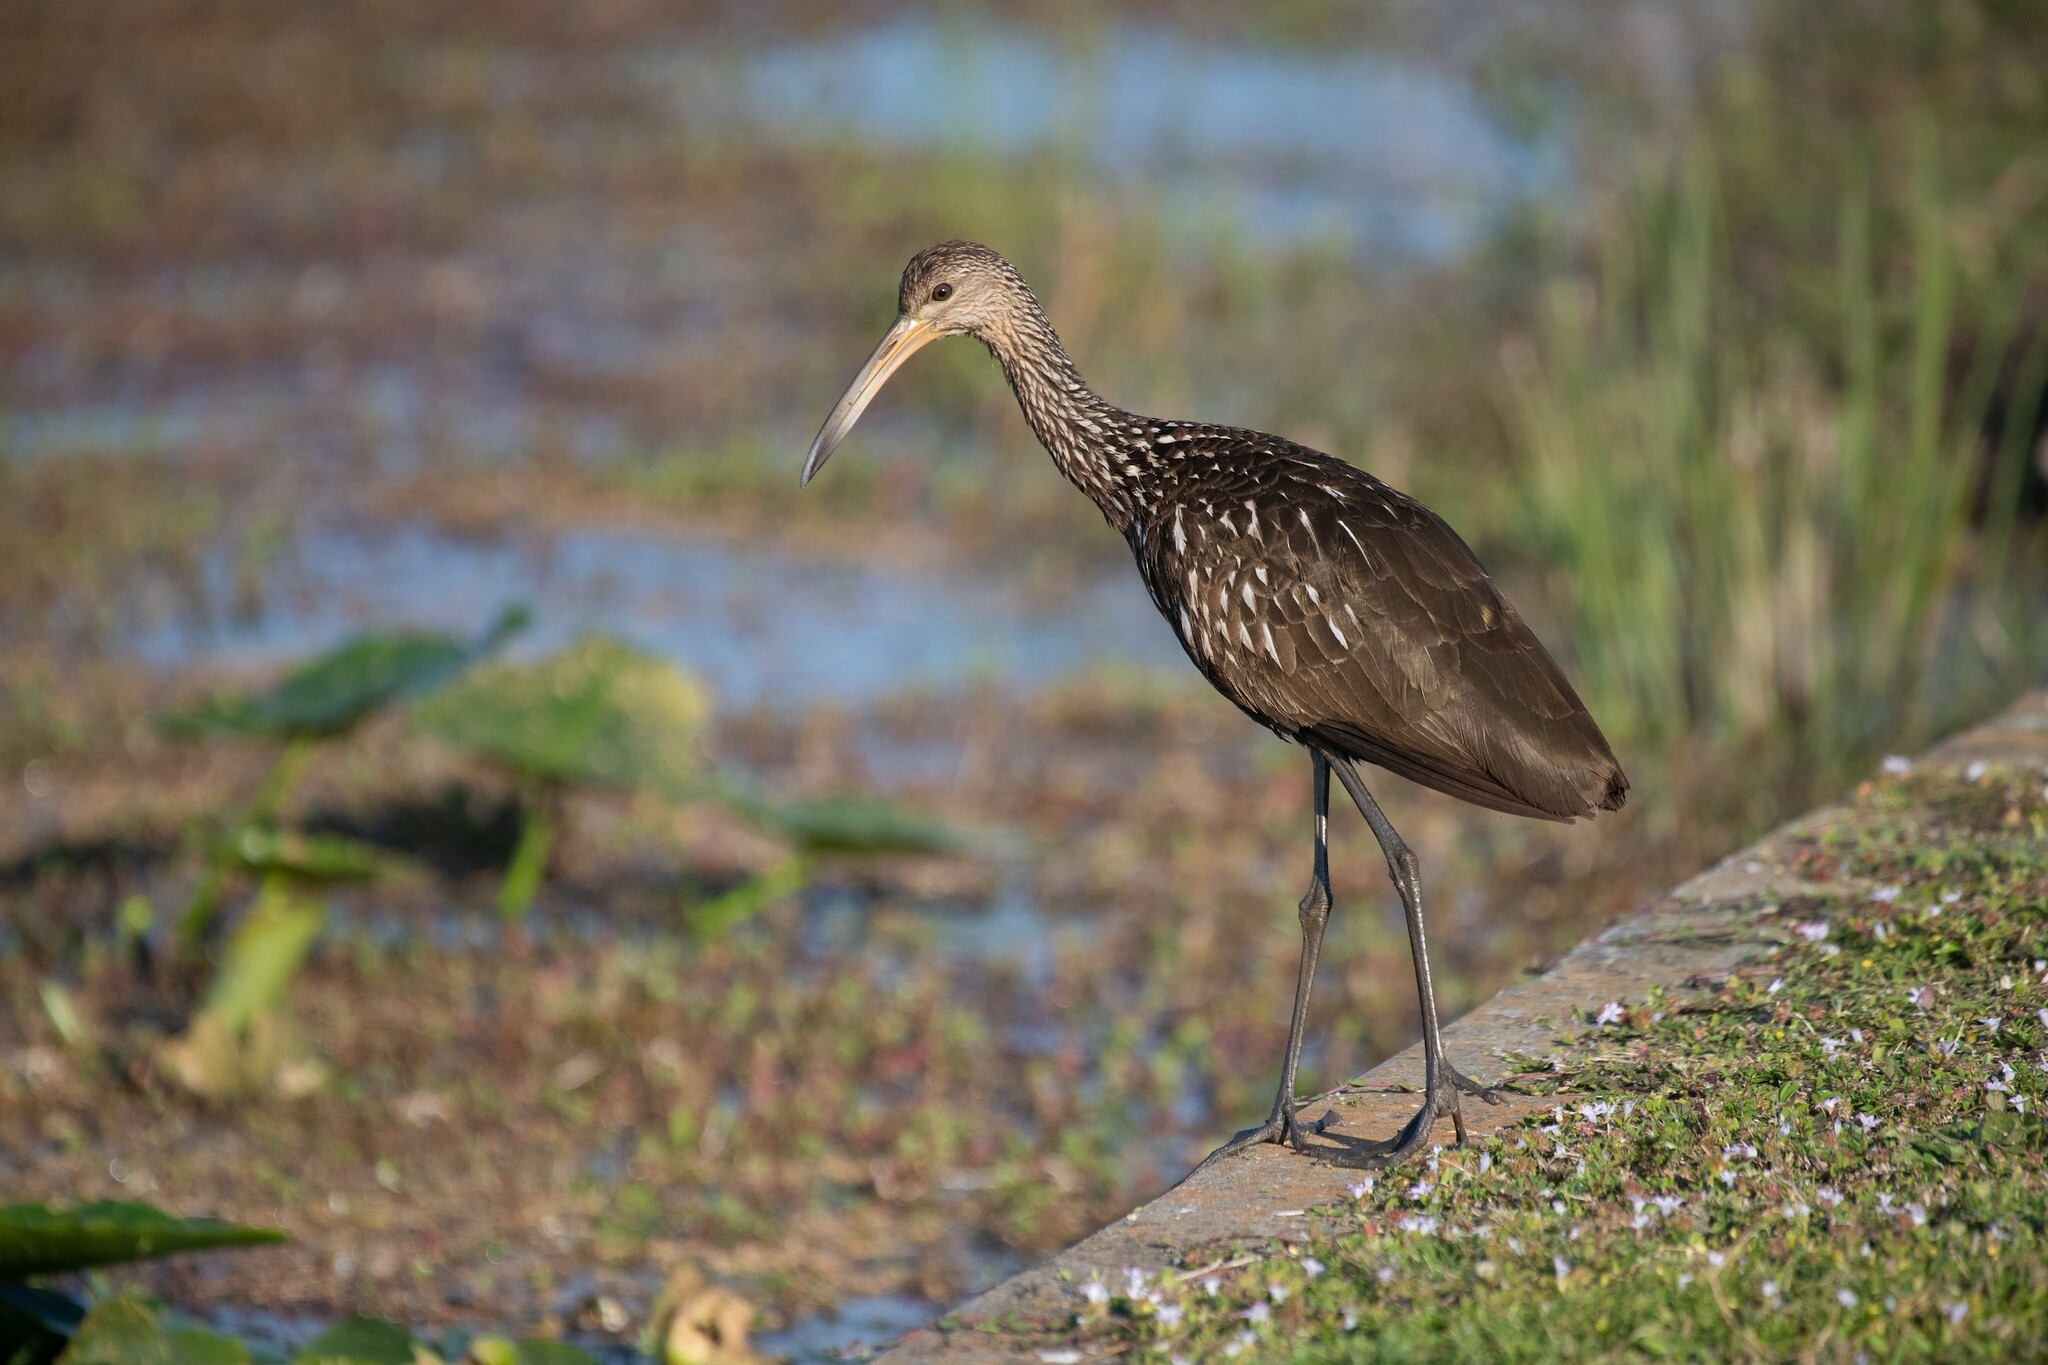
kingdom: Animalia
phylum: Chordata
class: Aves
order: Gruiformes
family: Aramidae
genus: Aramus
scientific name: Aramus guarauna
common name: Limpkin
